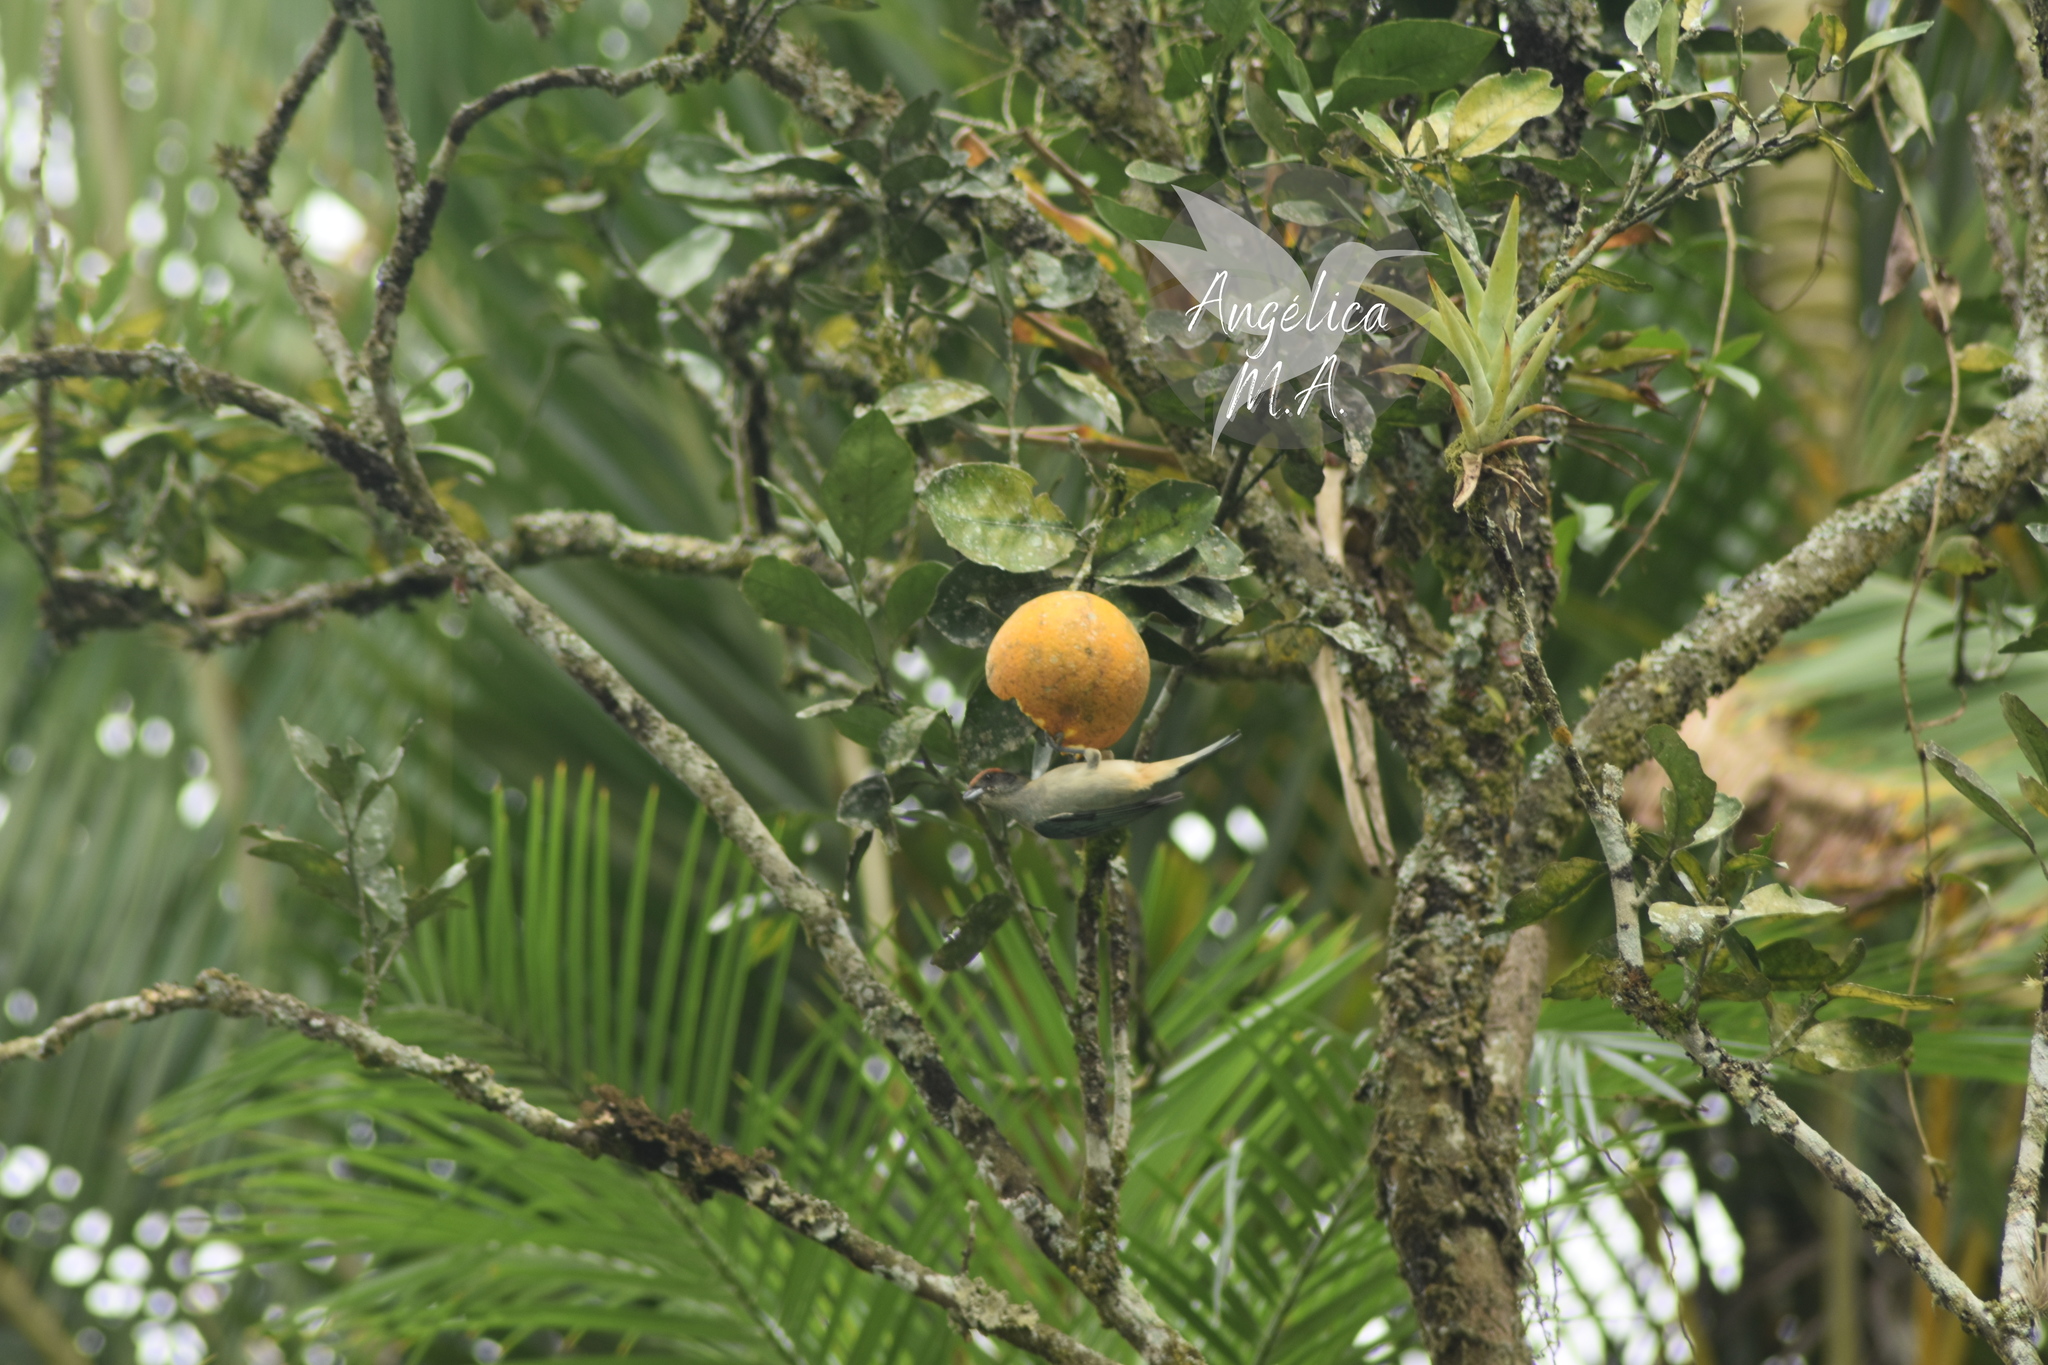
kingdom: Animalia
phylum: Chordata
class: Aves
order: Passeriformes
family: Thraupidae
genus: Stilpnia
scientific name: Stilpnia vitriolina
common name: Scrub tanager
